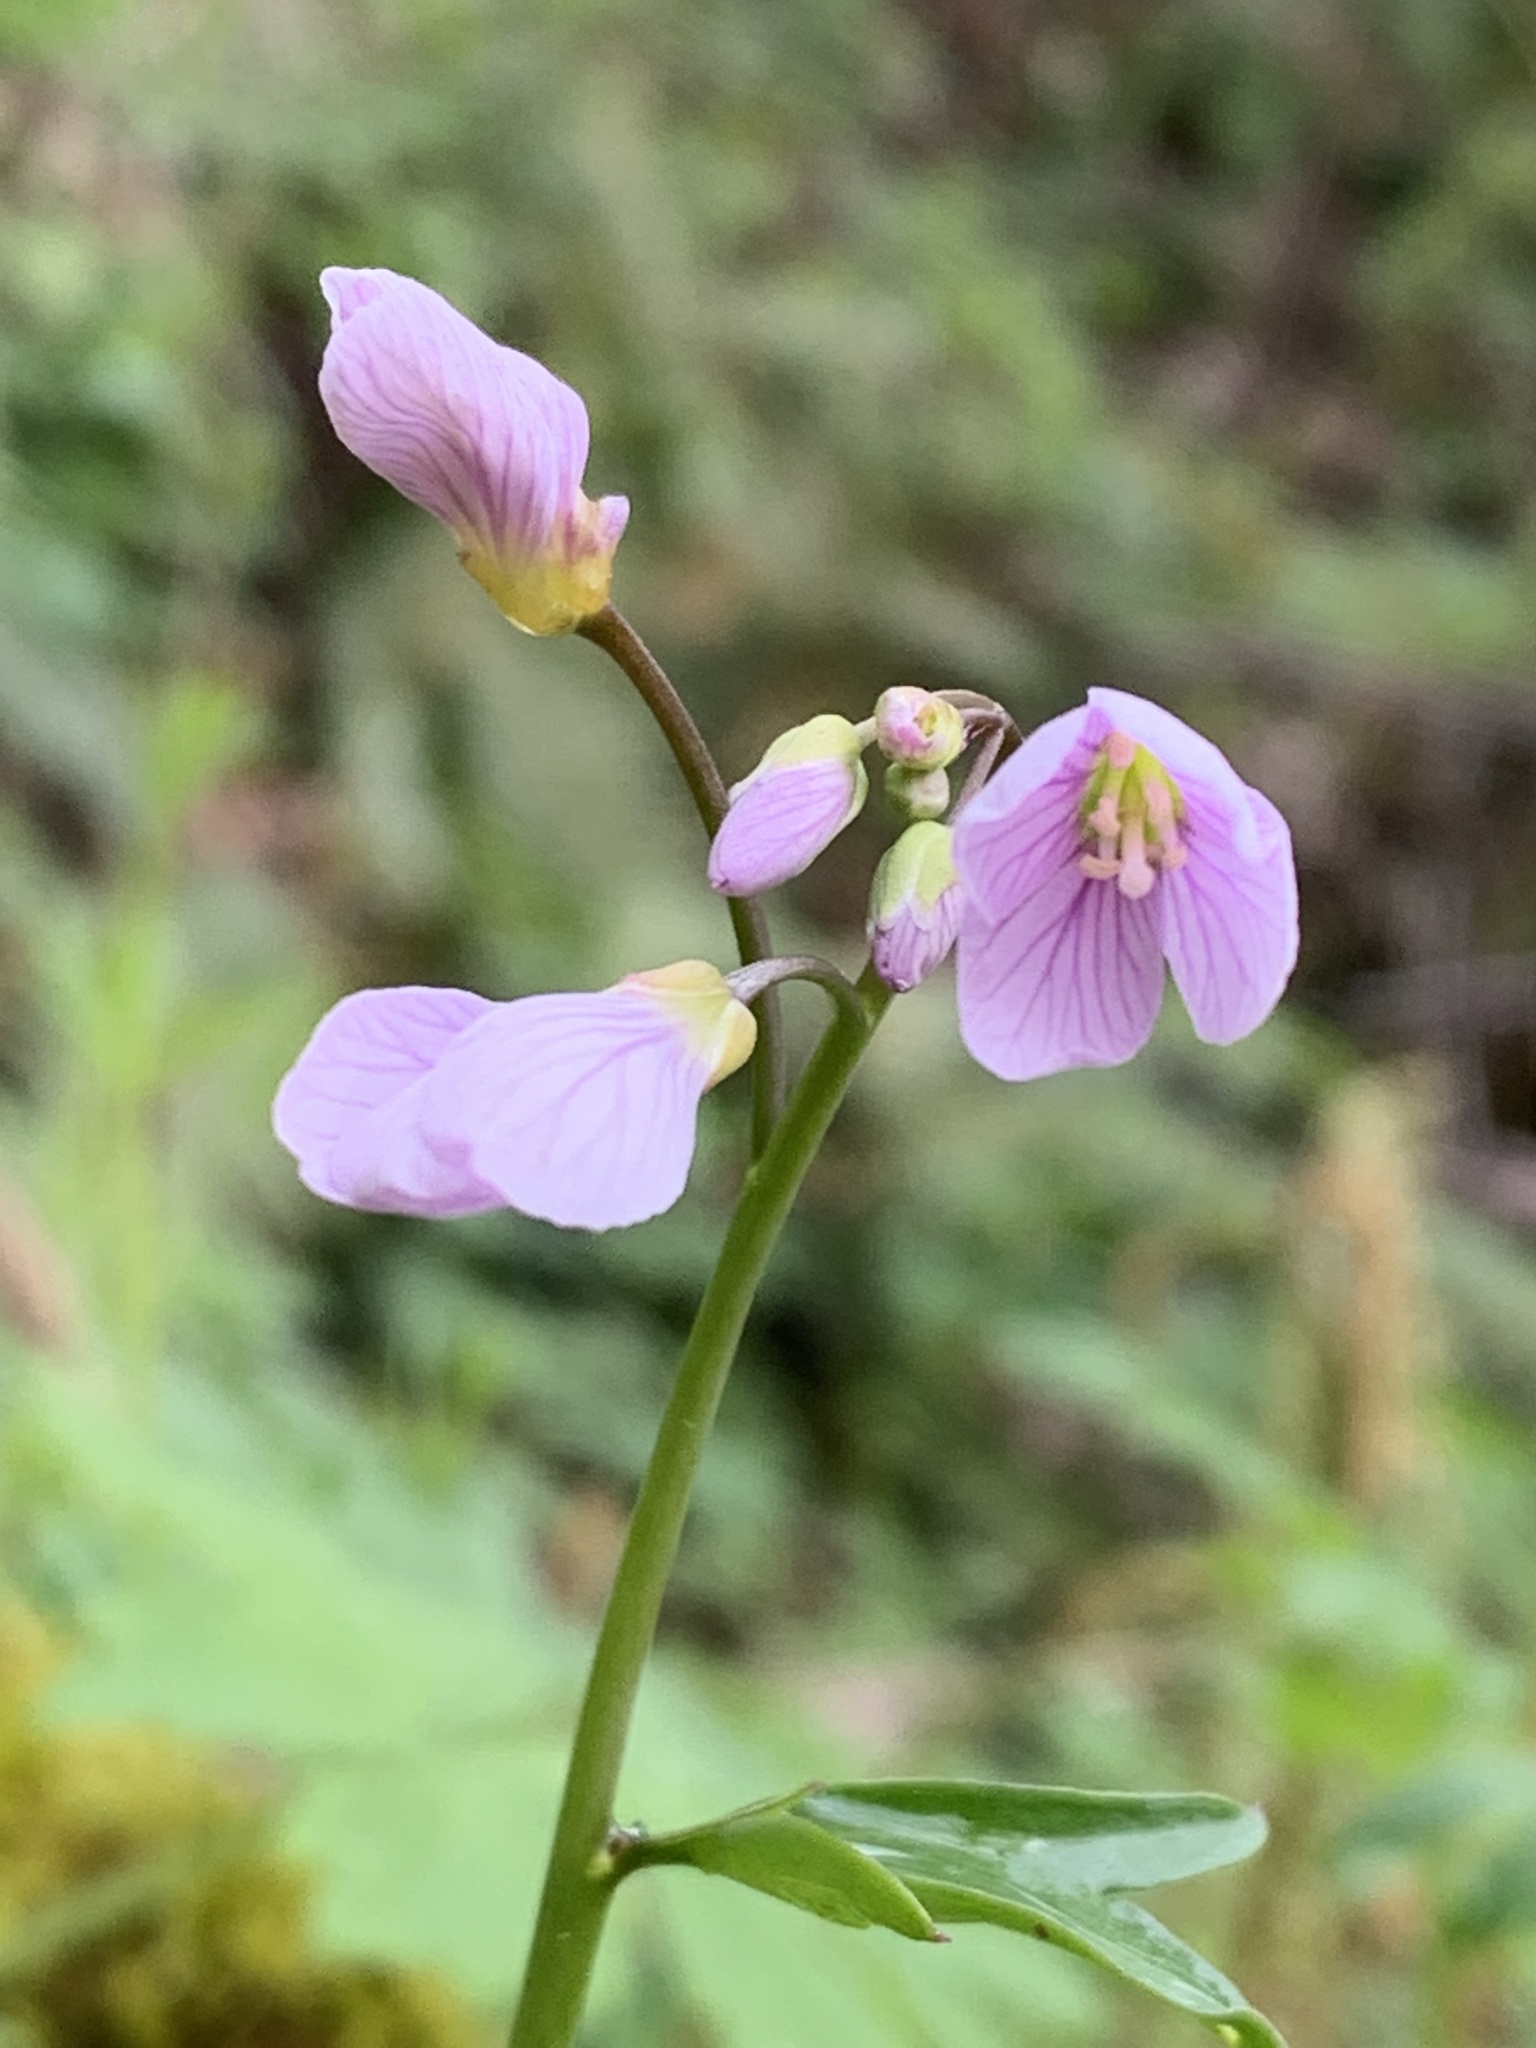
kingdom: Plantae
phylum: Tracheophyta
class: Magnoliopsida
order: Brassicales
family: Brassicaceae
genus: Cardamine
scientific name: Cardamine nuttallii
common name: Nuttall's toothwort
